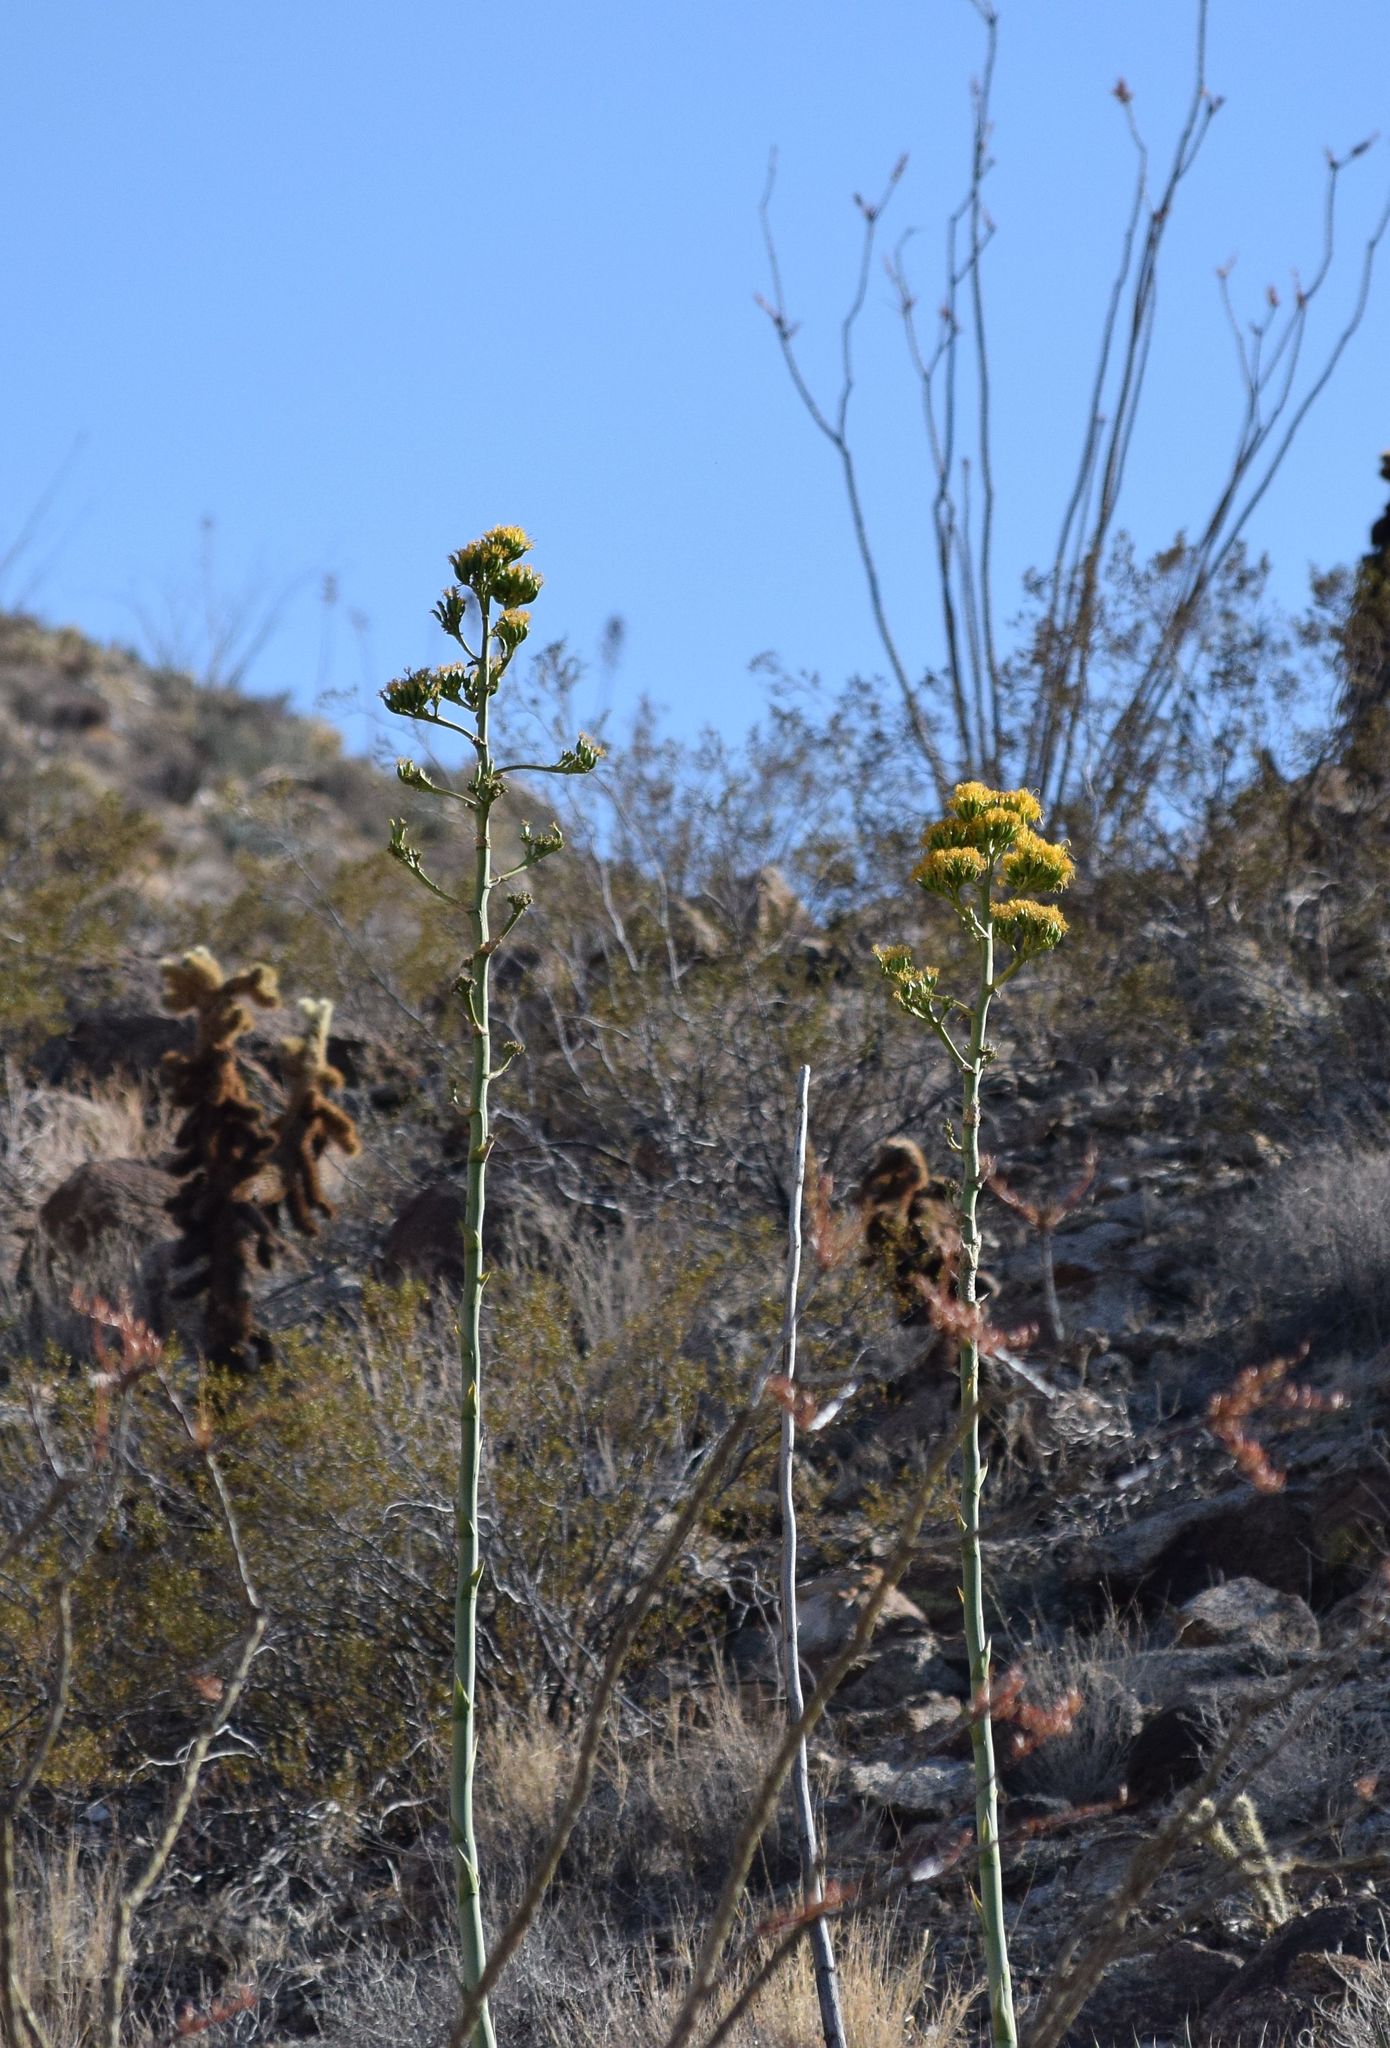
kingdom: Plantae
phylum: Tracheophyta
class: Liliopsida
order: Asparagales
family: Asparagaceae
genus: Agave
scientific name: Agave deserti
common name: Desert agave
